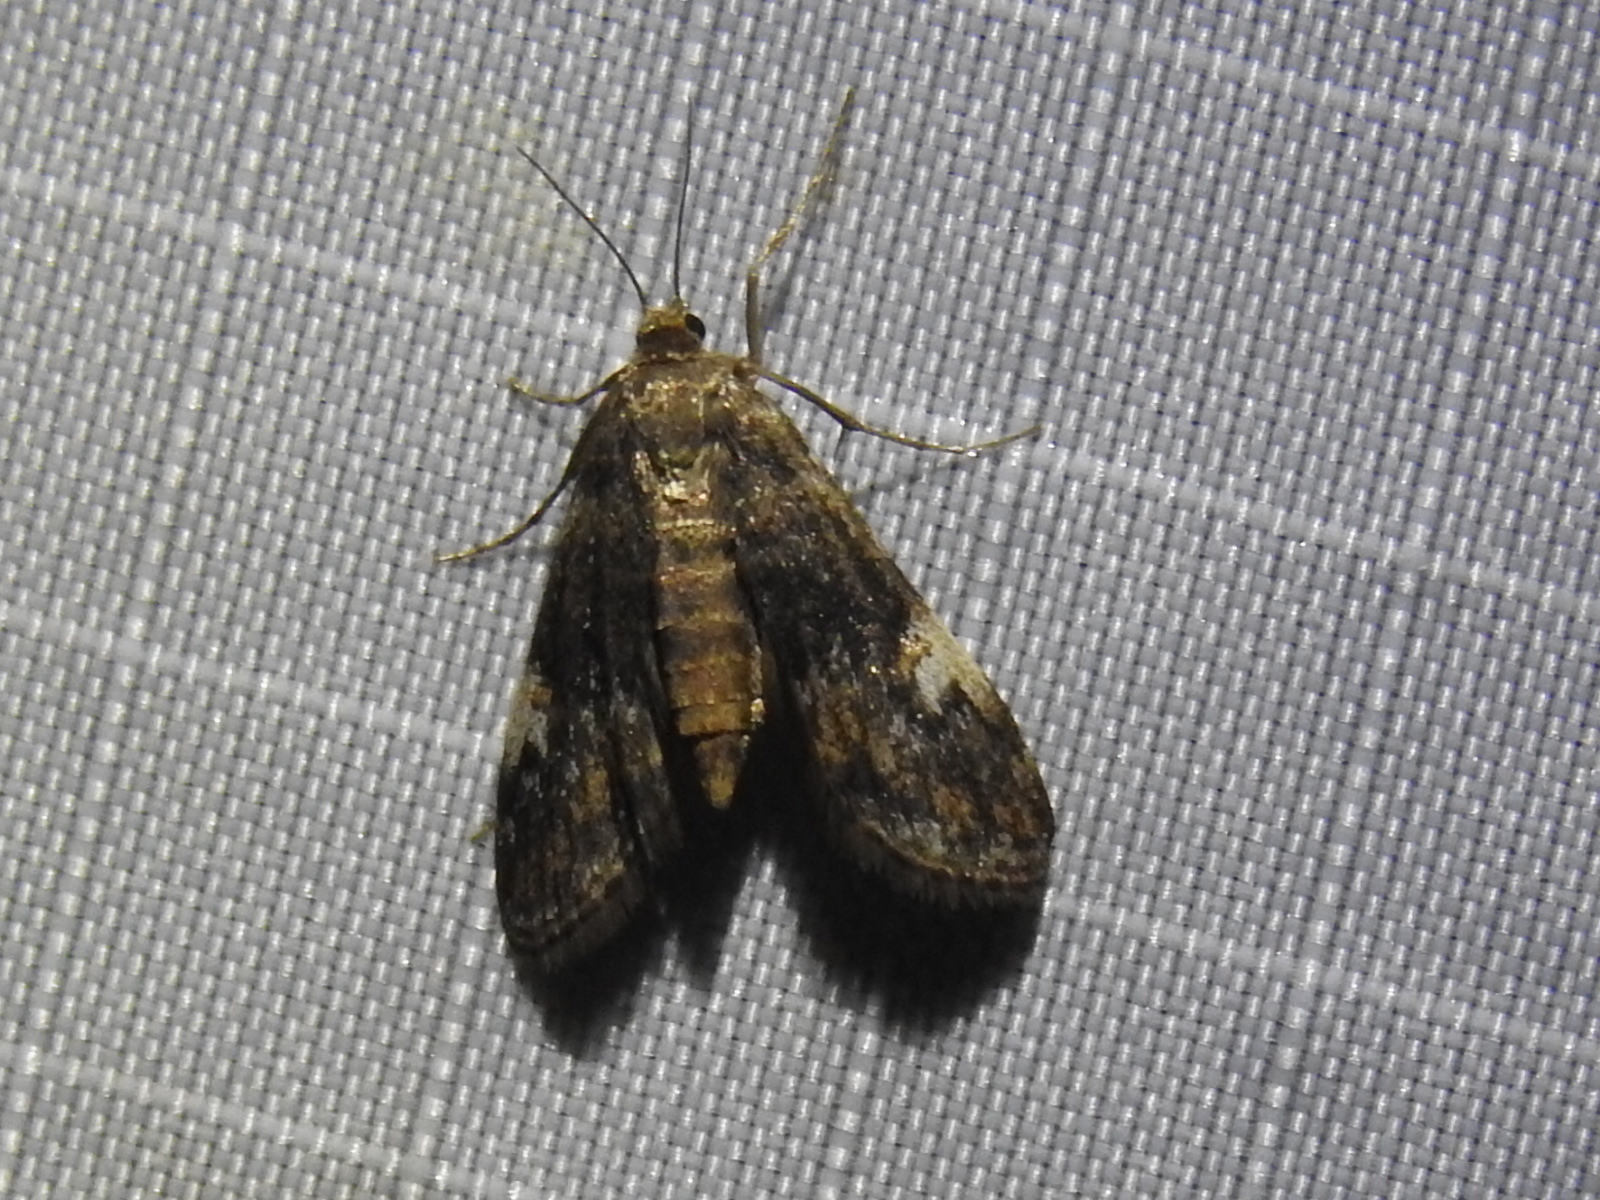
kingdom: Animalia
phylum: Arthropoda
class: Insecta
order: Lepidoptera
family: Crambidae
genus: Elophila
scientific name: Elophila obliteralis
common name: Waterlily leafcutter moth
